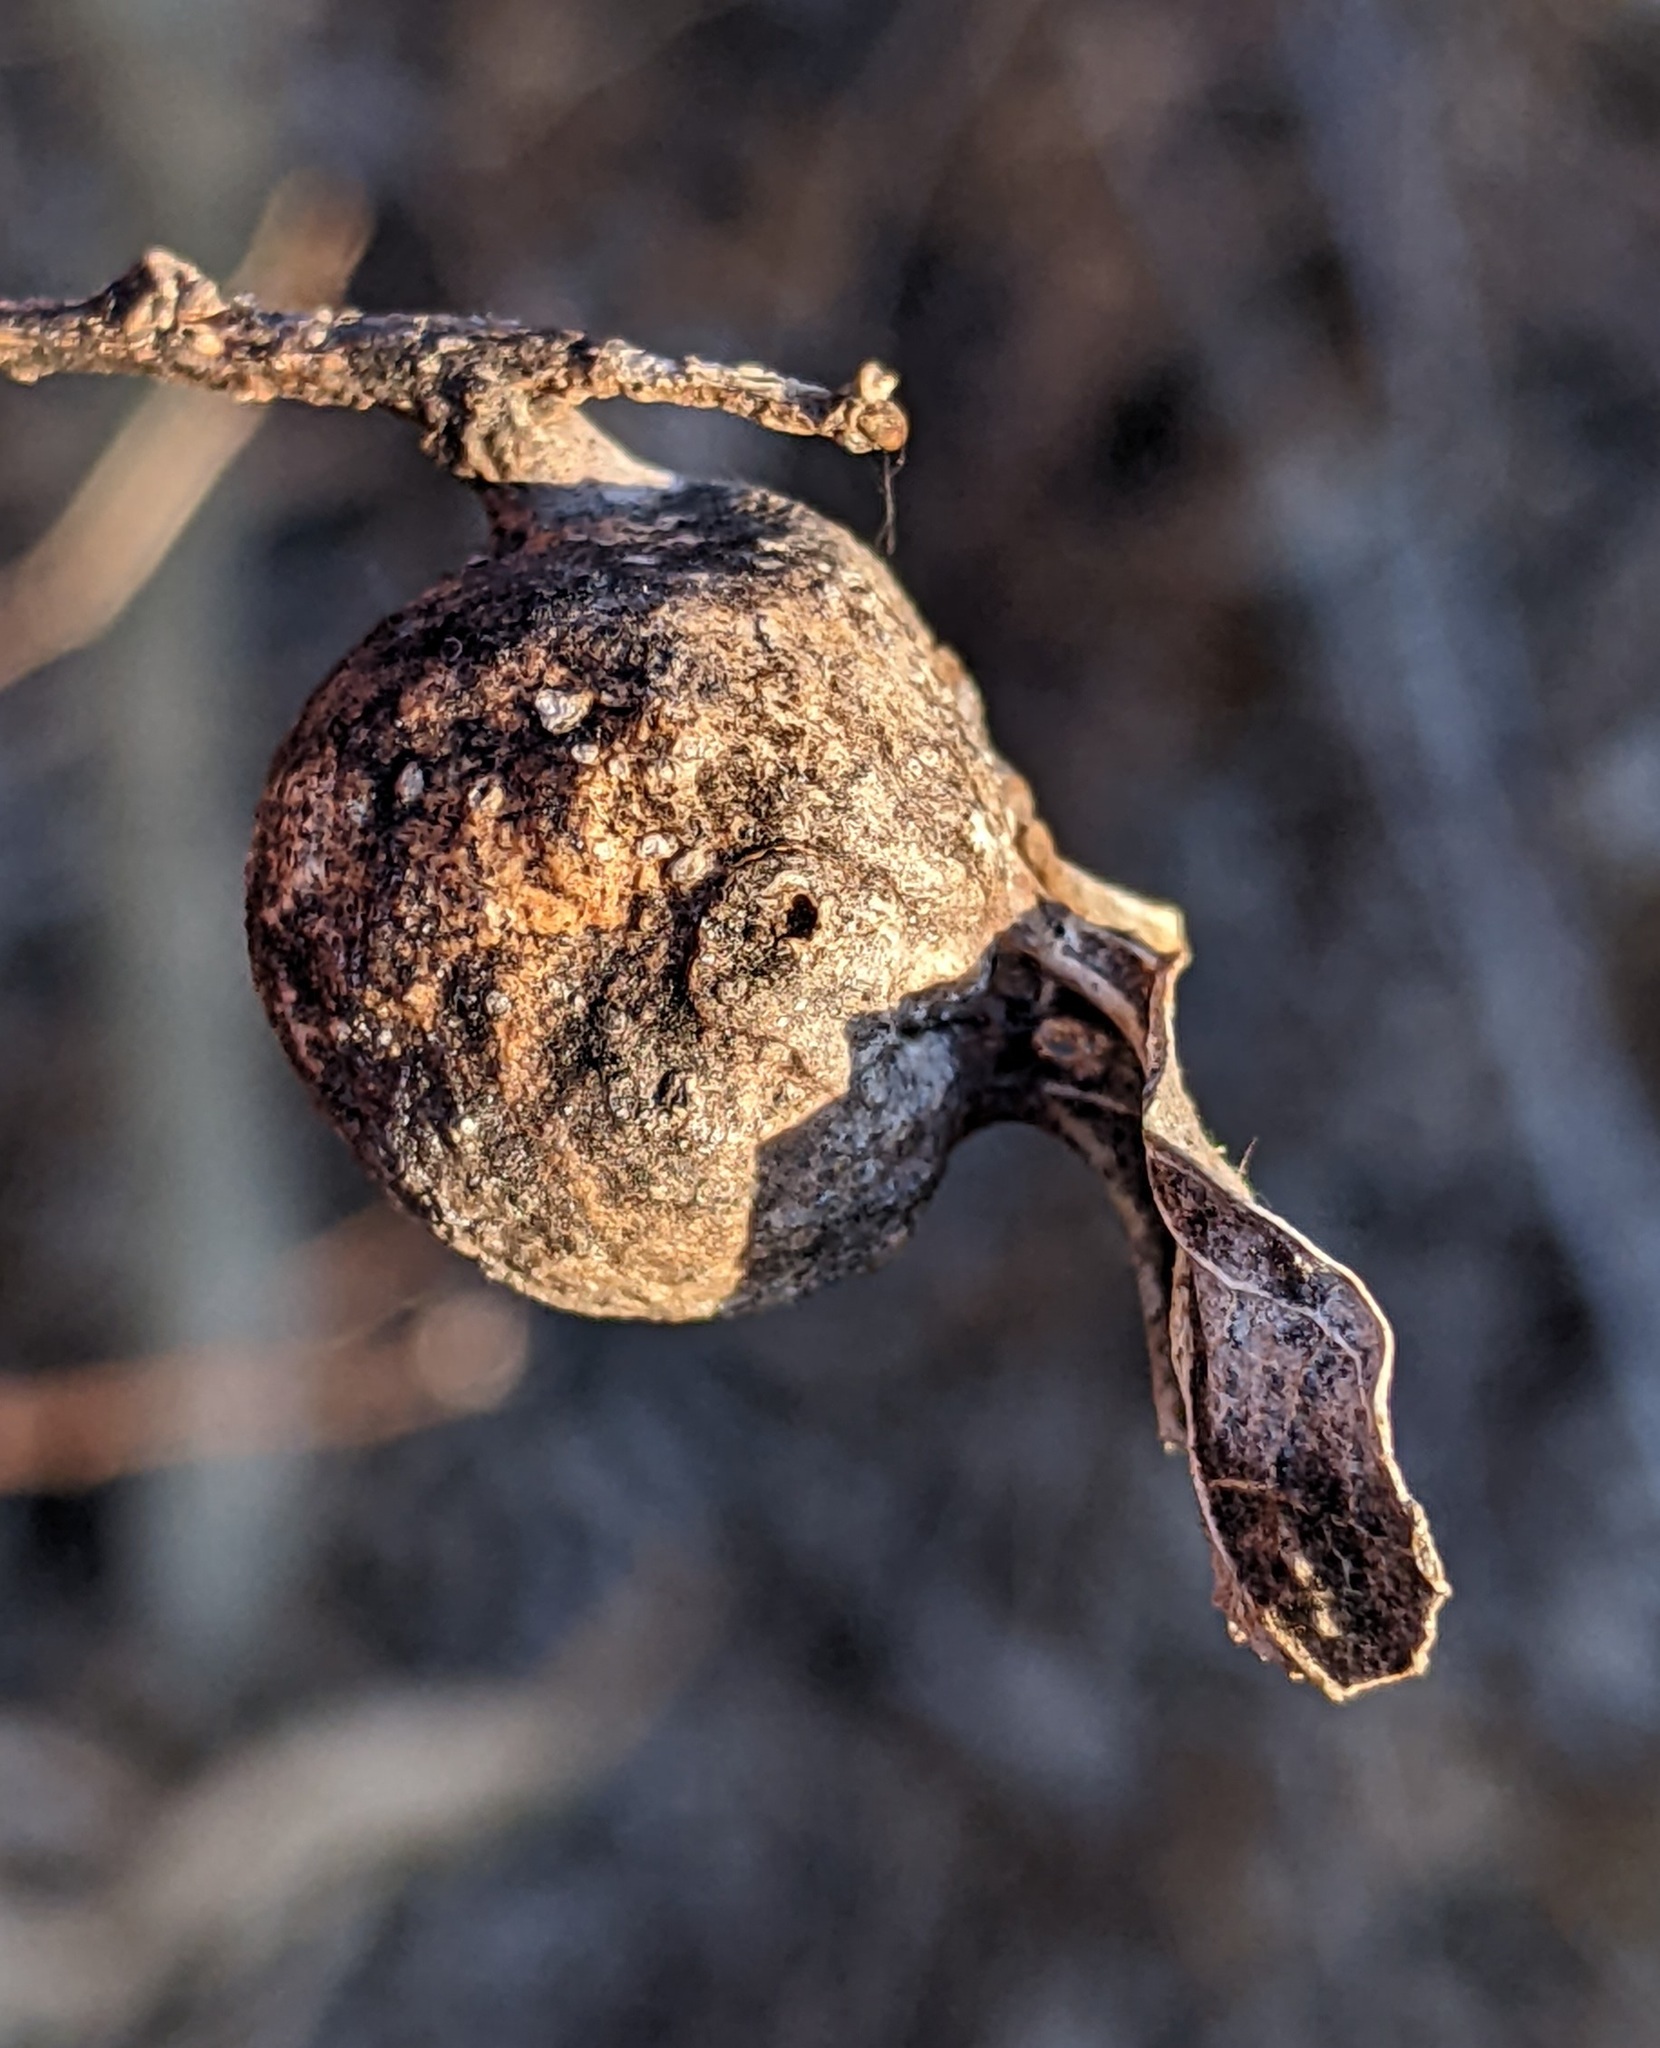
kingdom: Animalia
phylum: Arthropoda
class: Insecta
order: Hemiptera
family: Aphalaridae
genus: Pachypsylla
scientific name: Pachypsylla venusta
